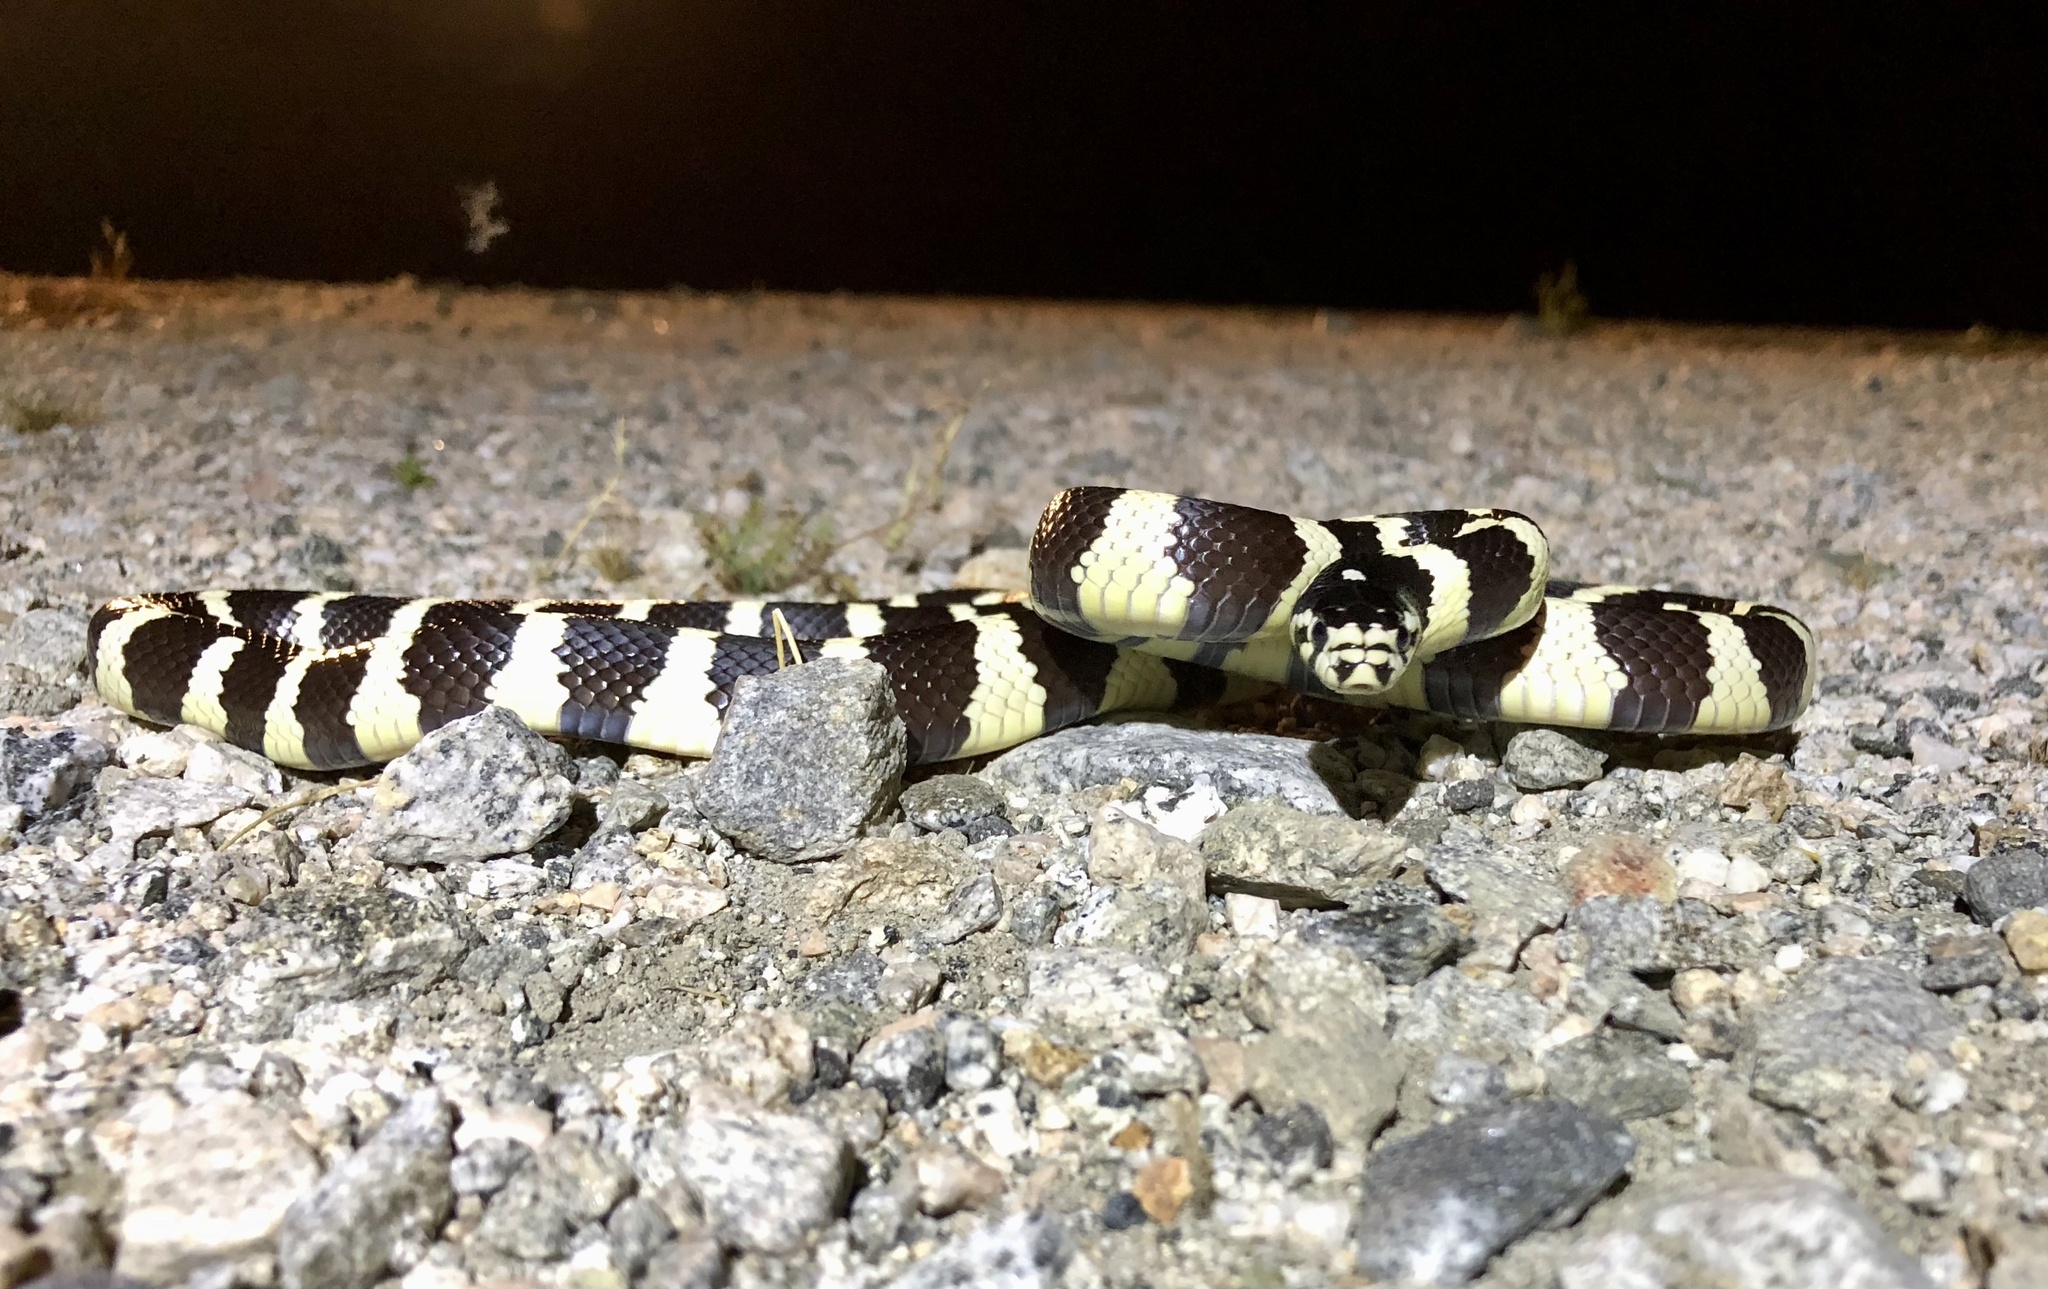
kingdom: Animalia
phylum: Chordata
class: Squamata
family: Colubridae
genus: Lampropeltis
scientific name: Lampropeltis californiae
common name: California kingsnake
